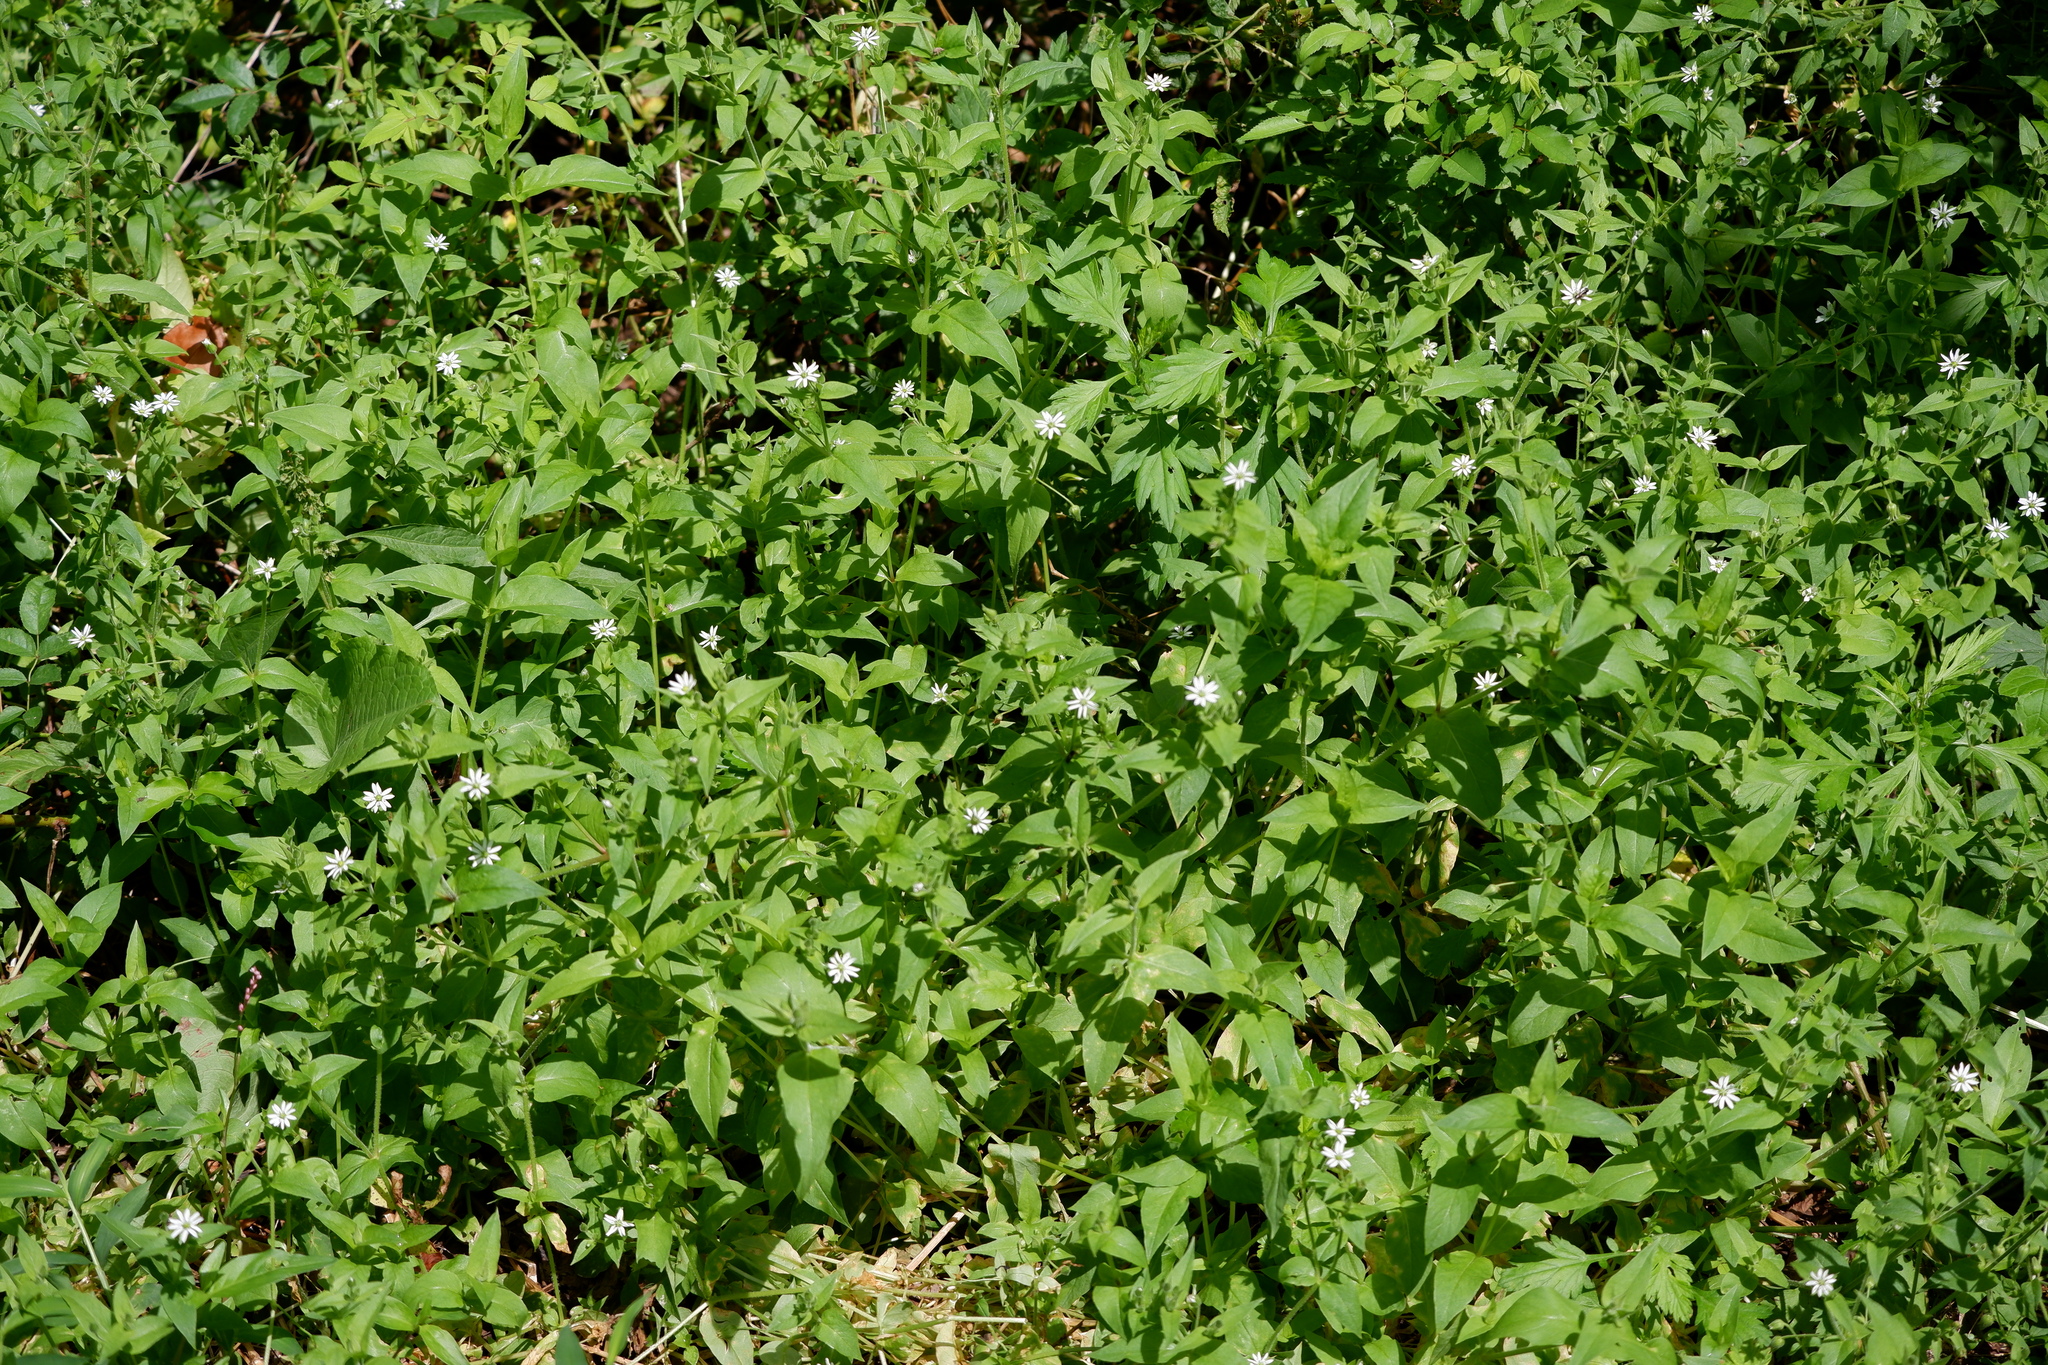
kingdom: Plantae
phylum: Tracheophyta
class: Magnoliopsida
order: Caryophyllales
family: Caryophyllaceae
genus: Stellaria
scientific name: Stellaria aquatica
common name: Water chickweed
